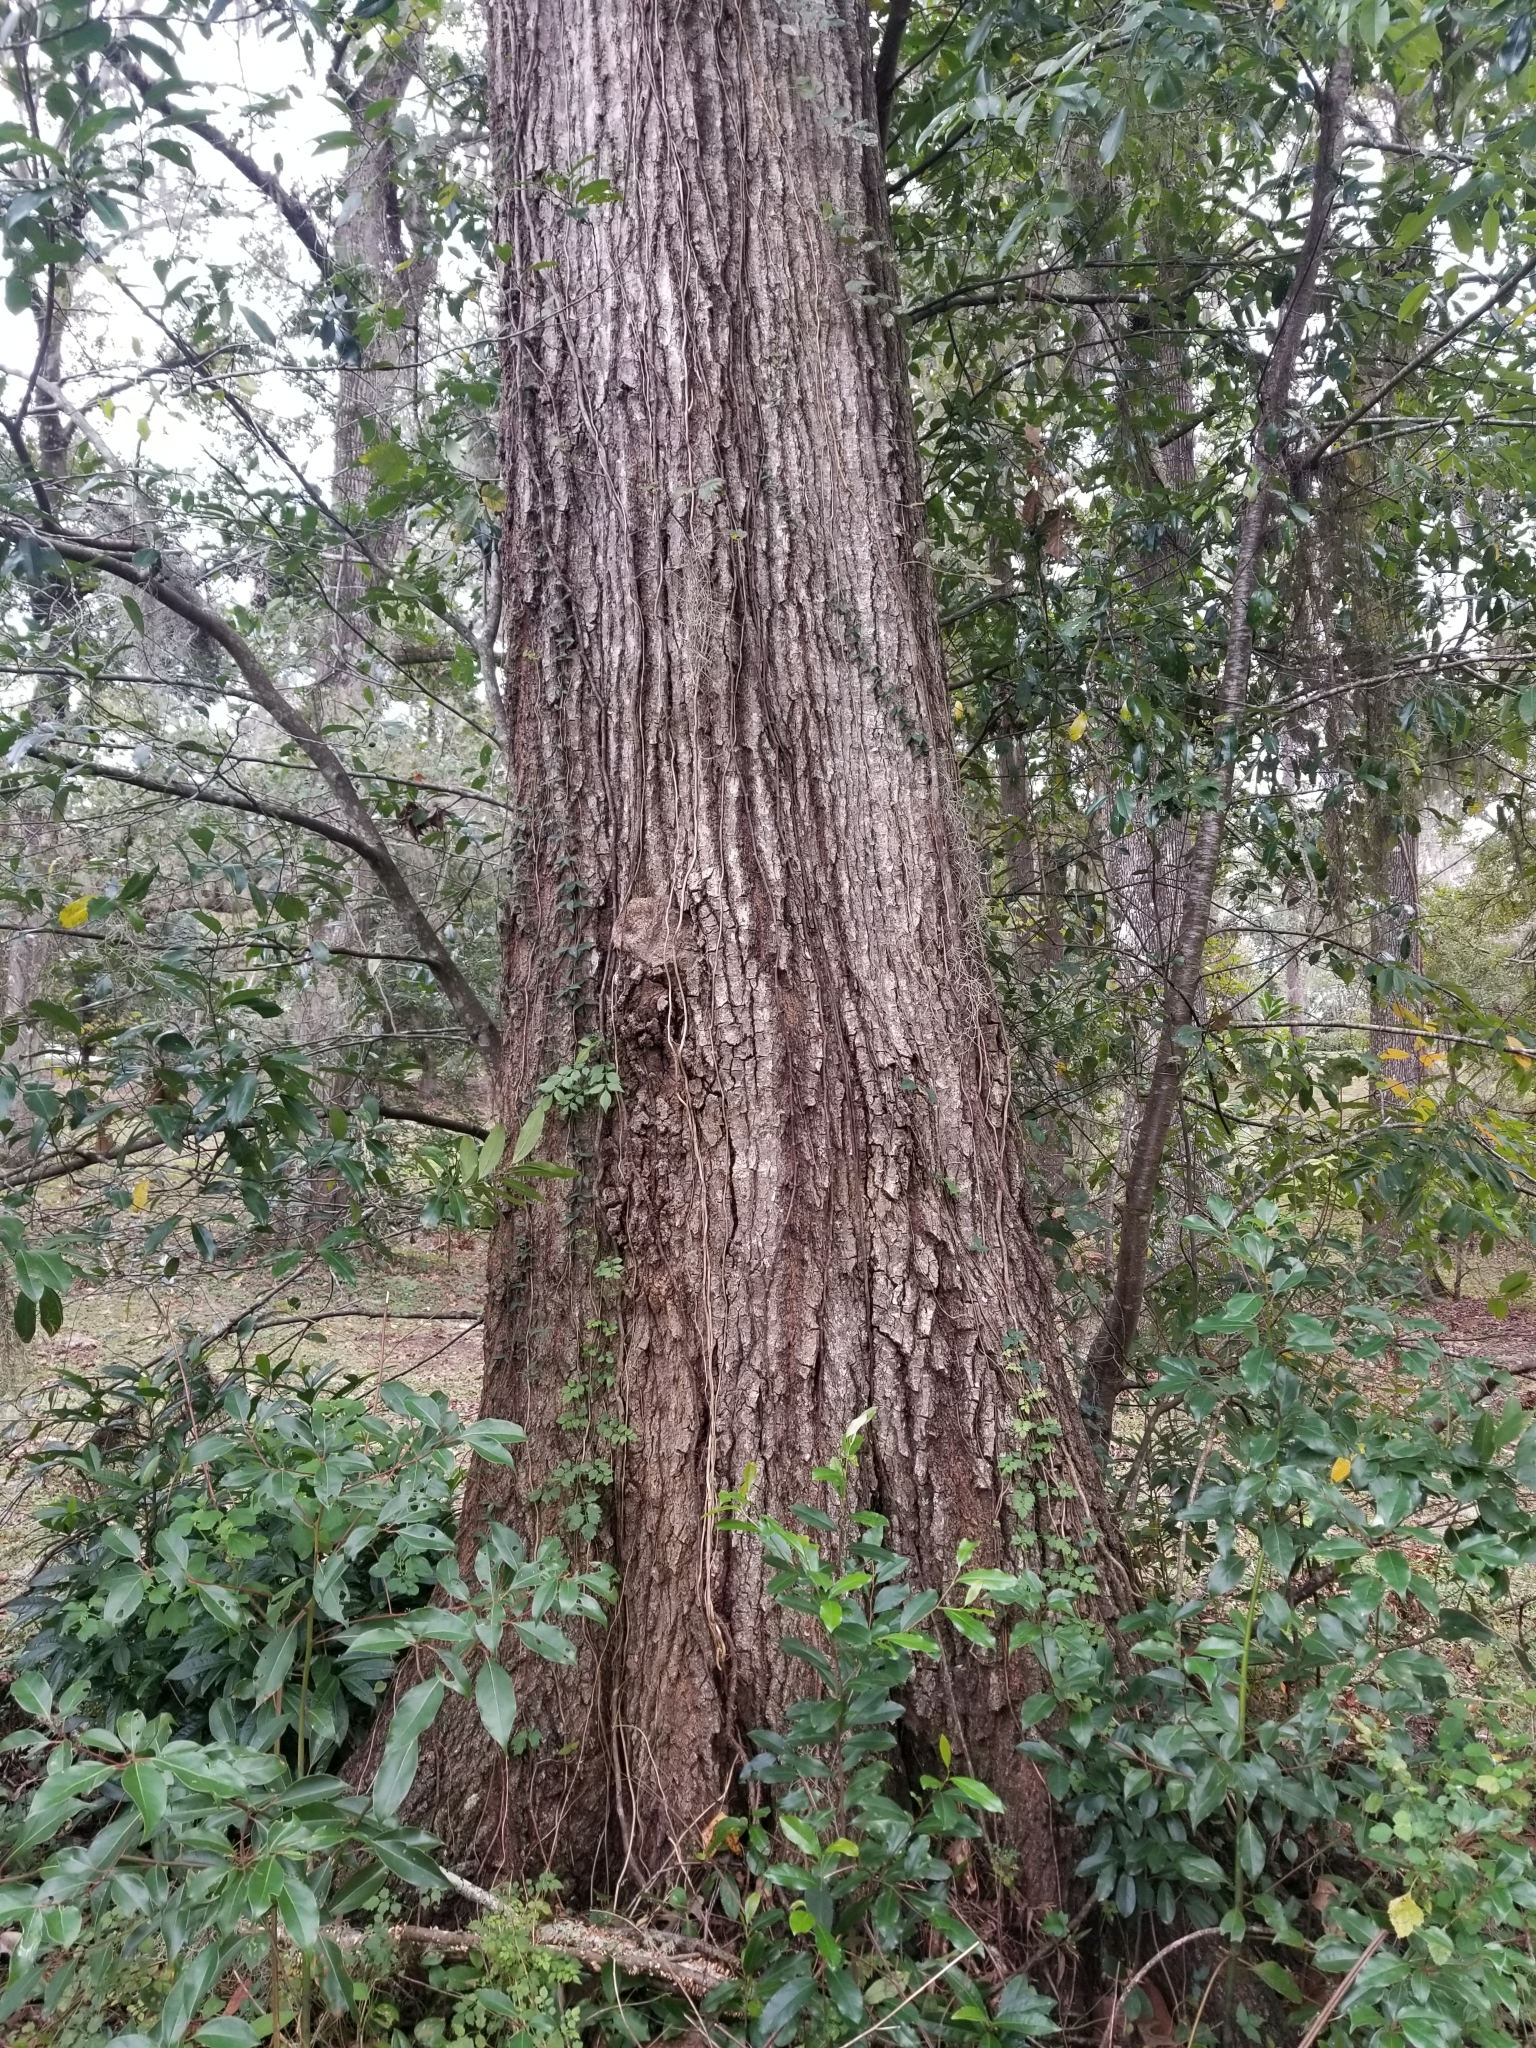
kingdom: Plantae
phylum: Tracheophyta
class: Magnoliopsida
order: Fagales
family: Fagaceae
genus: Quercus
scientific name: Quercus shumardii
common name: Shumard oak
